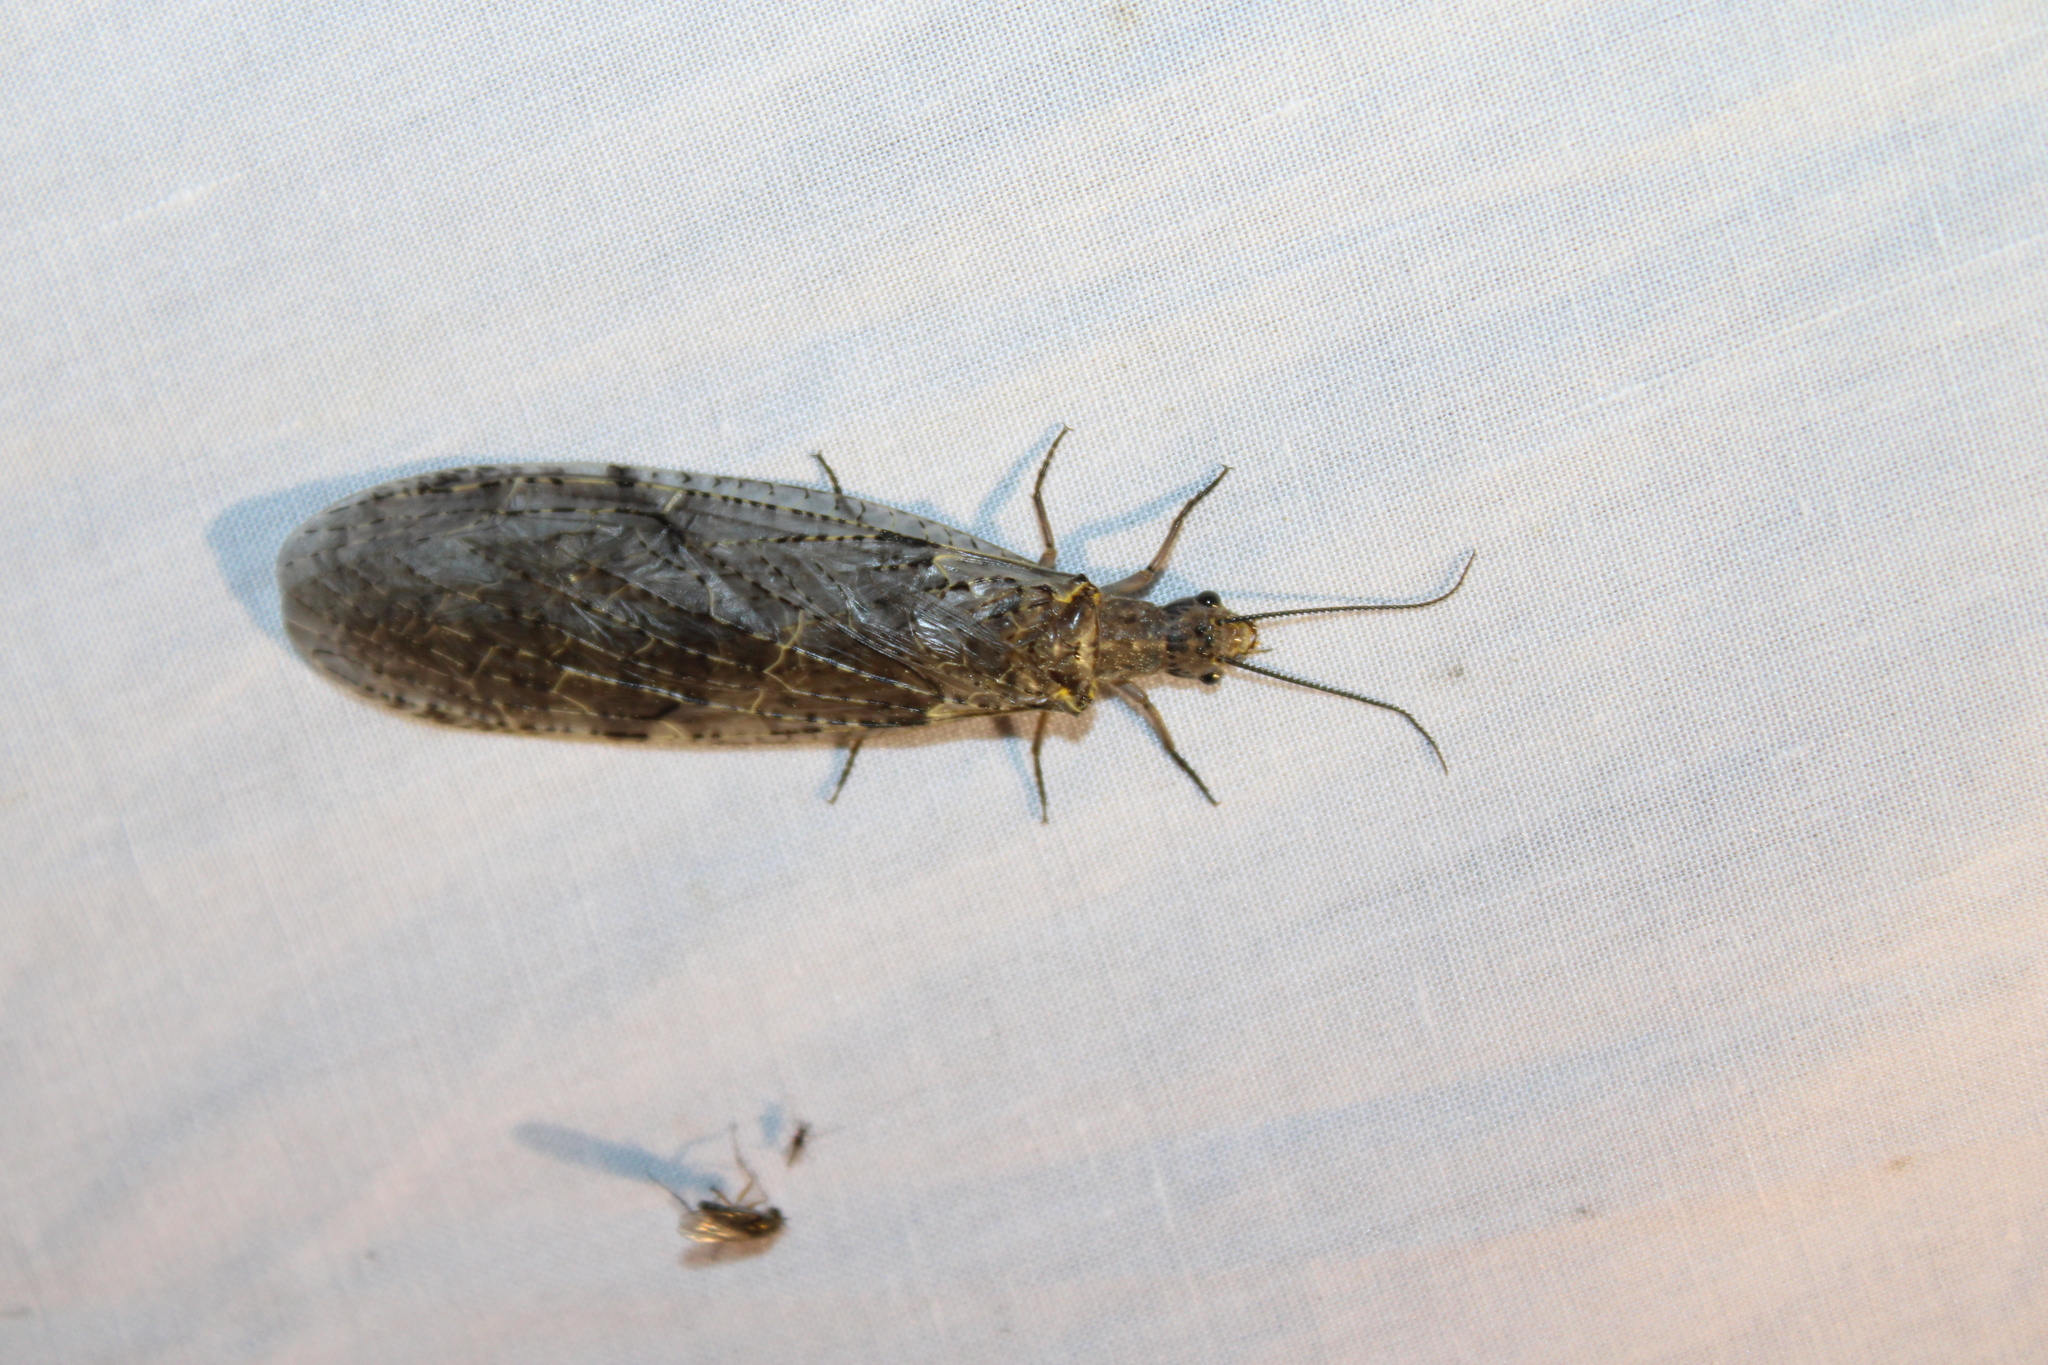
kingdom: Animalia
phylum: Arthropoda
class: Insecta
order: Megaloptera
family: Corydalidae
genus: Chauliodes
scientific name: Chauliodes rastricornis
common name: Spring fishfly
